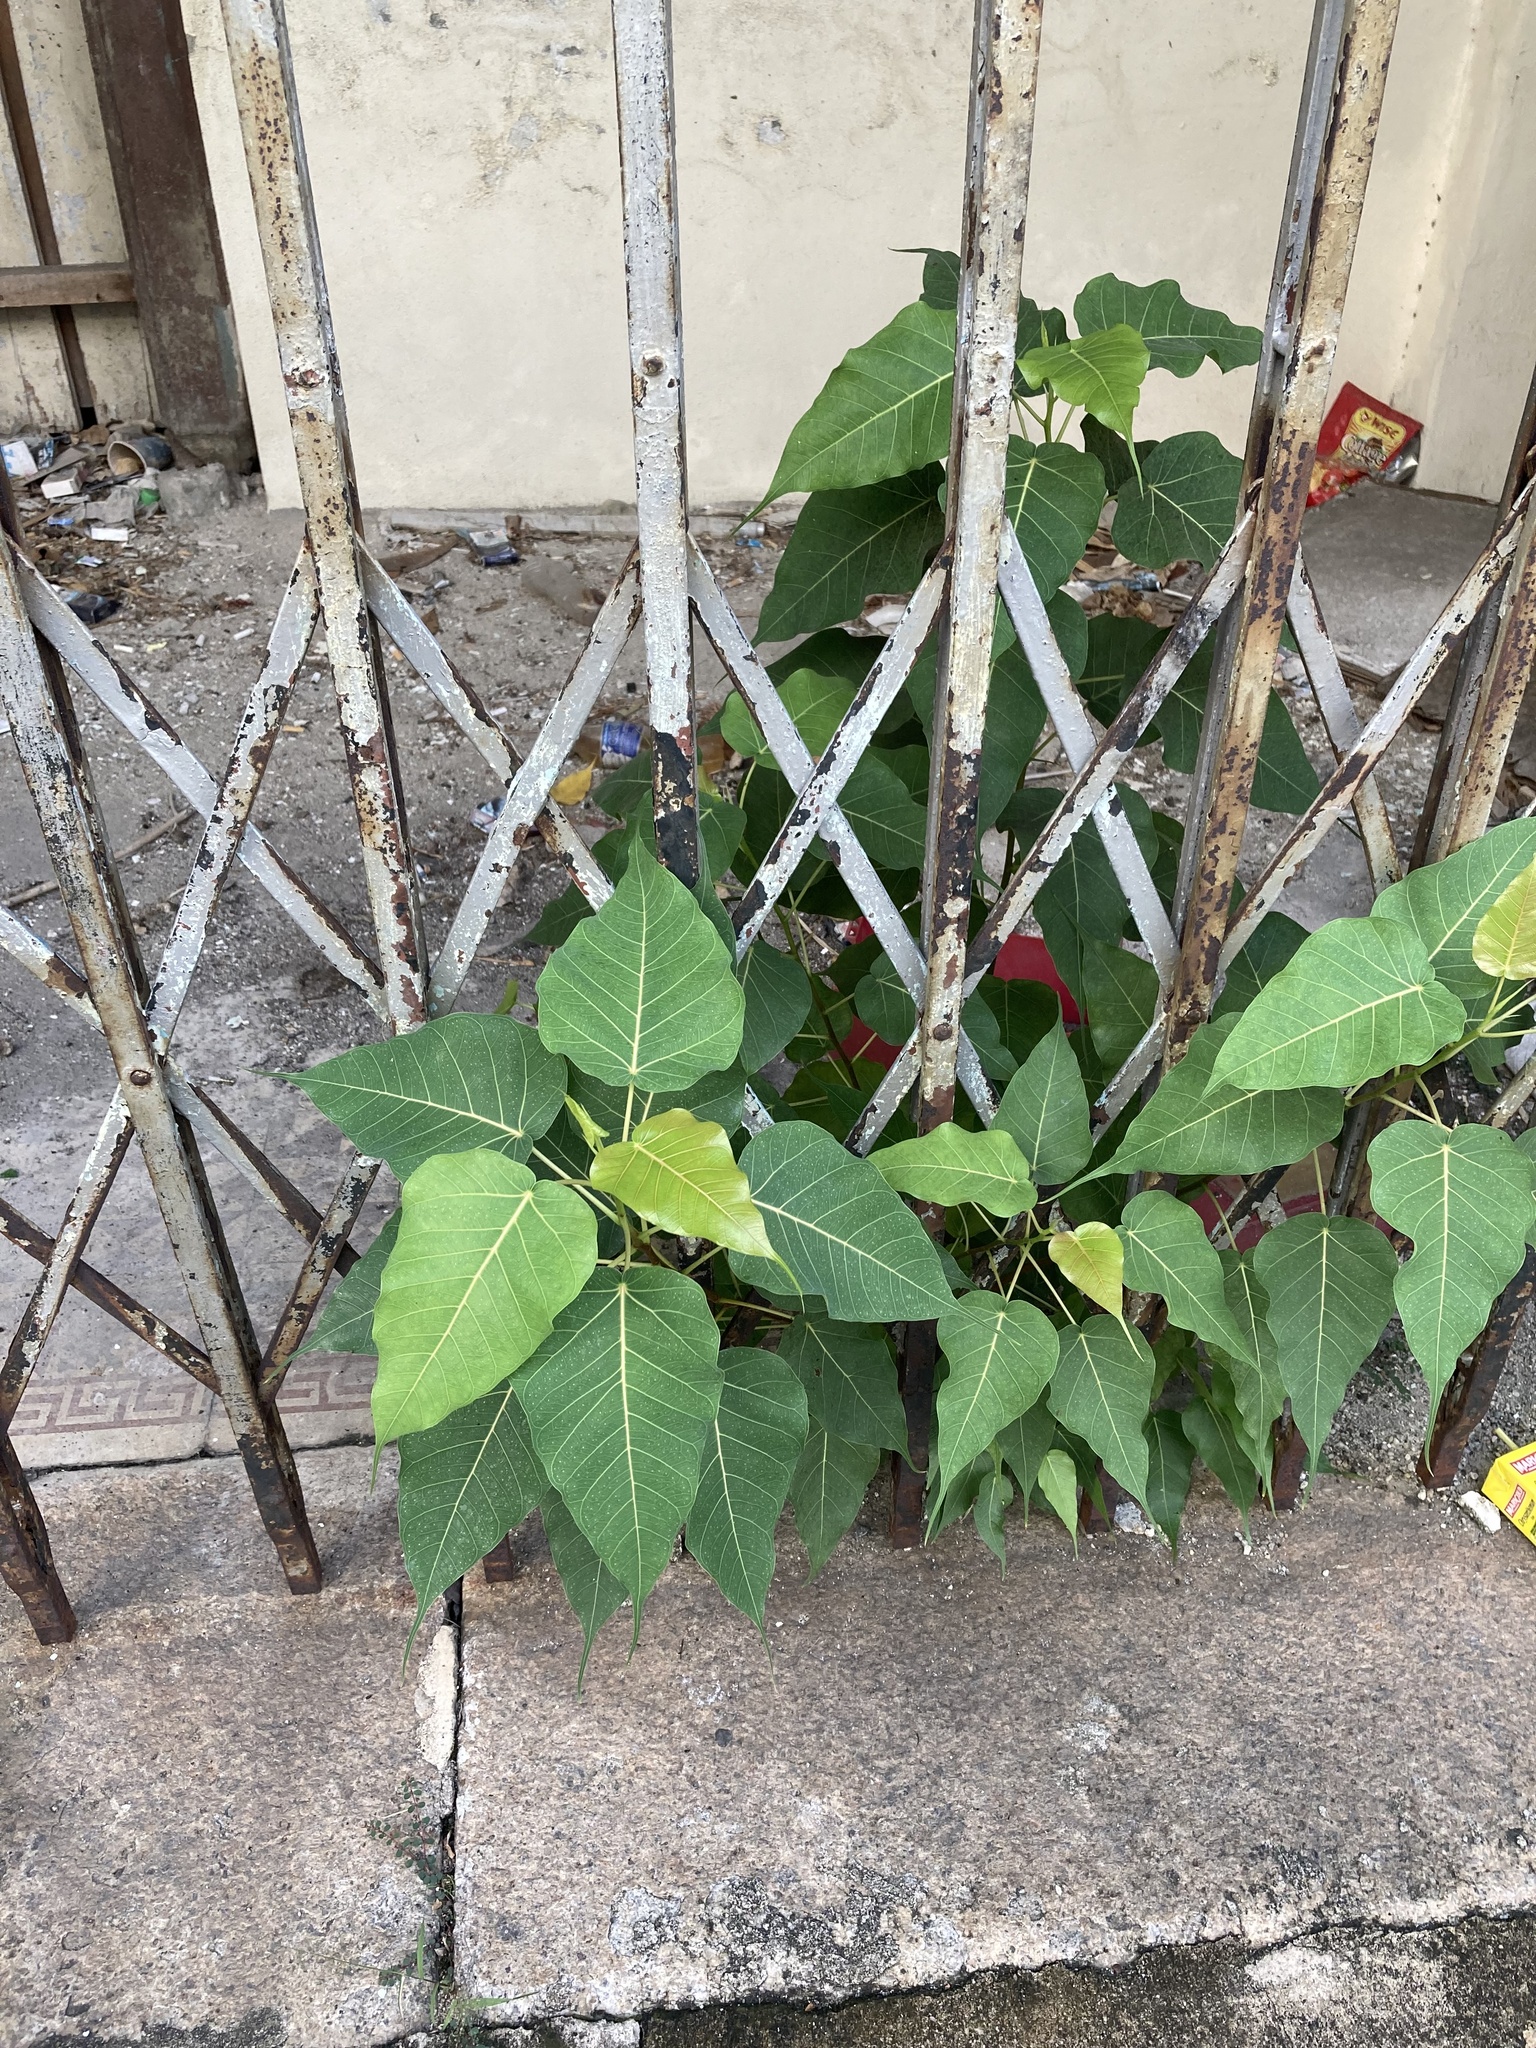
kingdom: Plantae
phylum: Tracheophyta
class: Magnoliopsida
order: Rosales
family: Moraceae
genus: Ficus
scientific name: Ficus religiosa
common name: Bodhi tree
